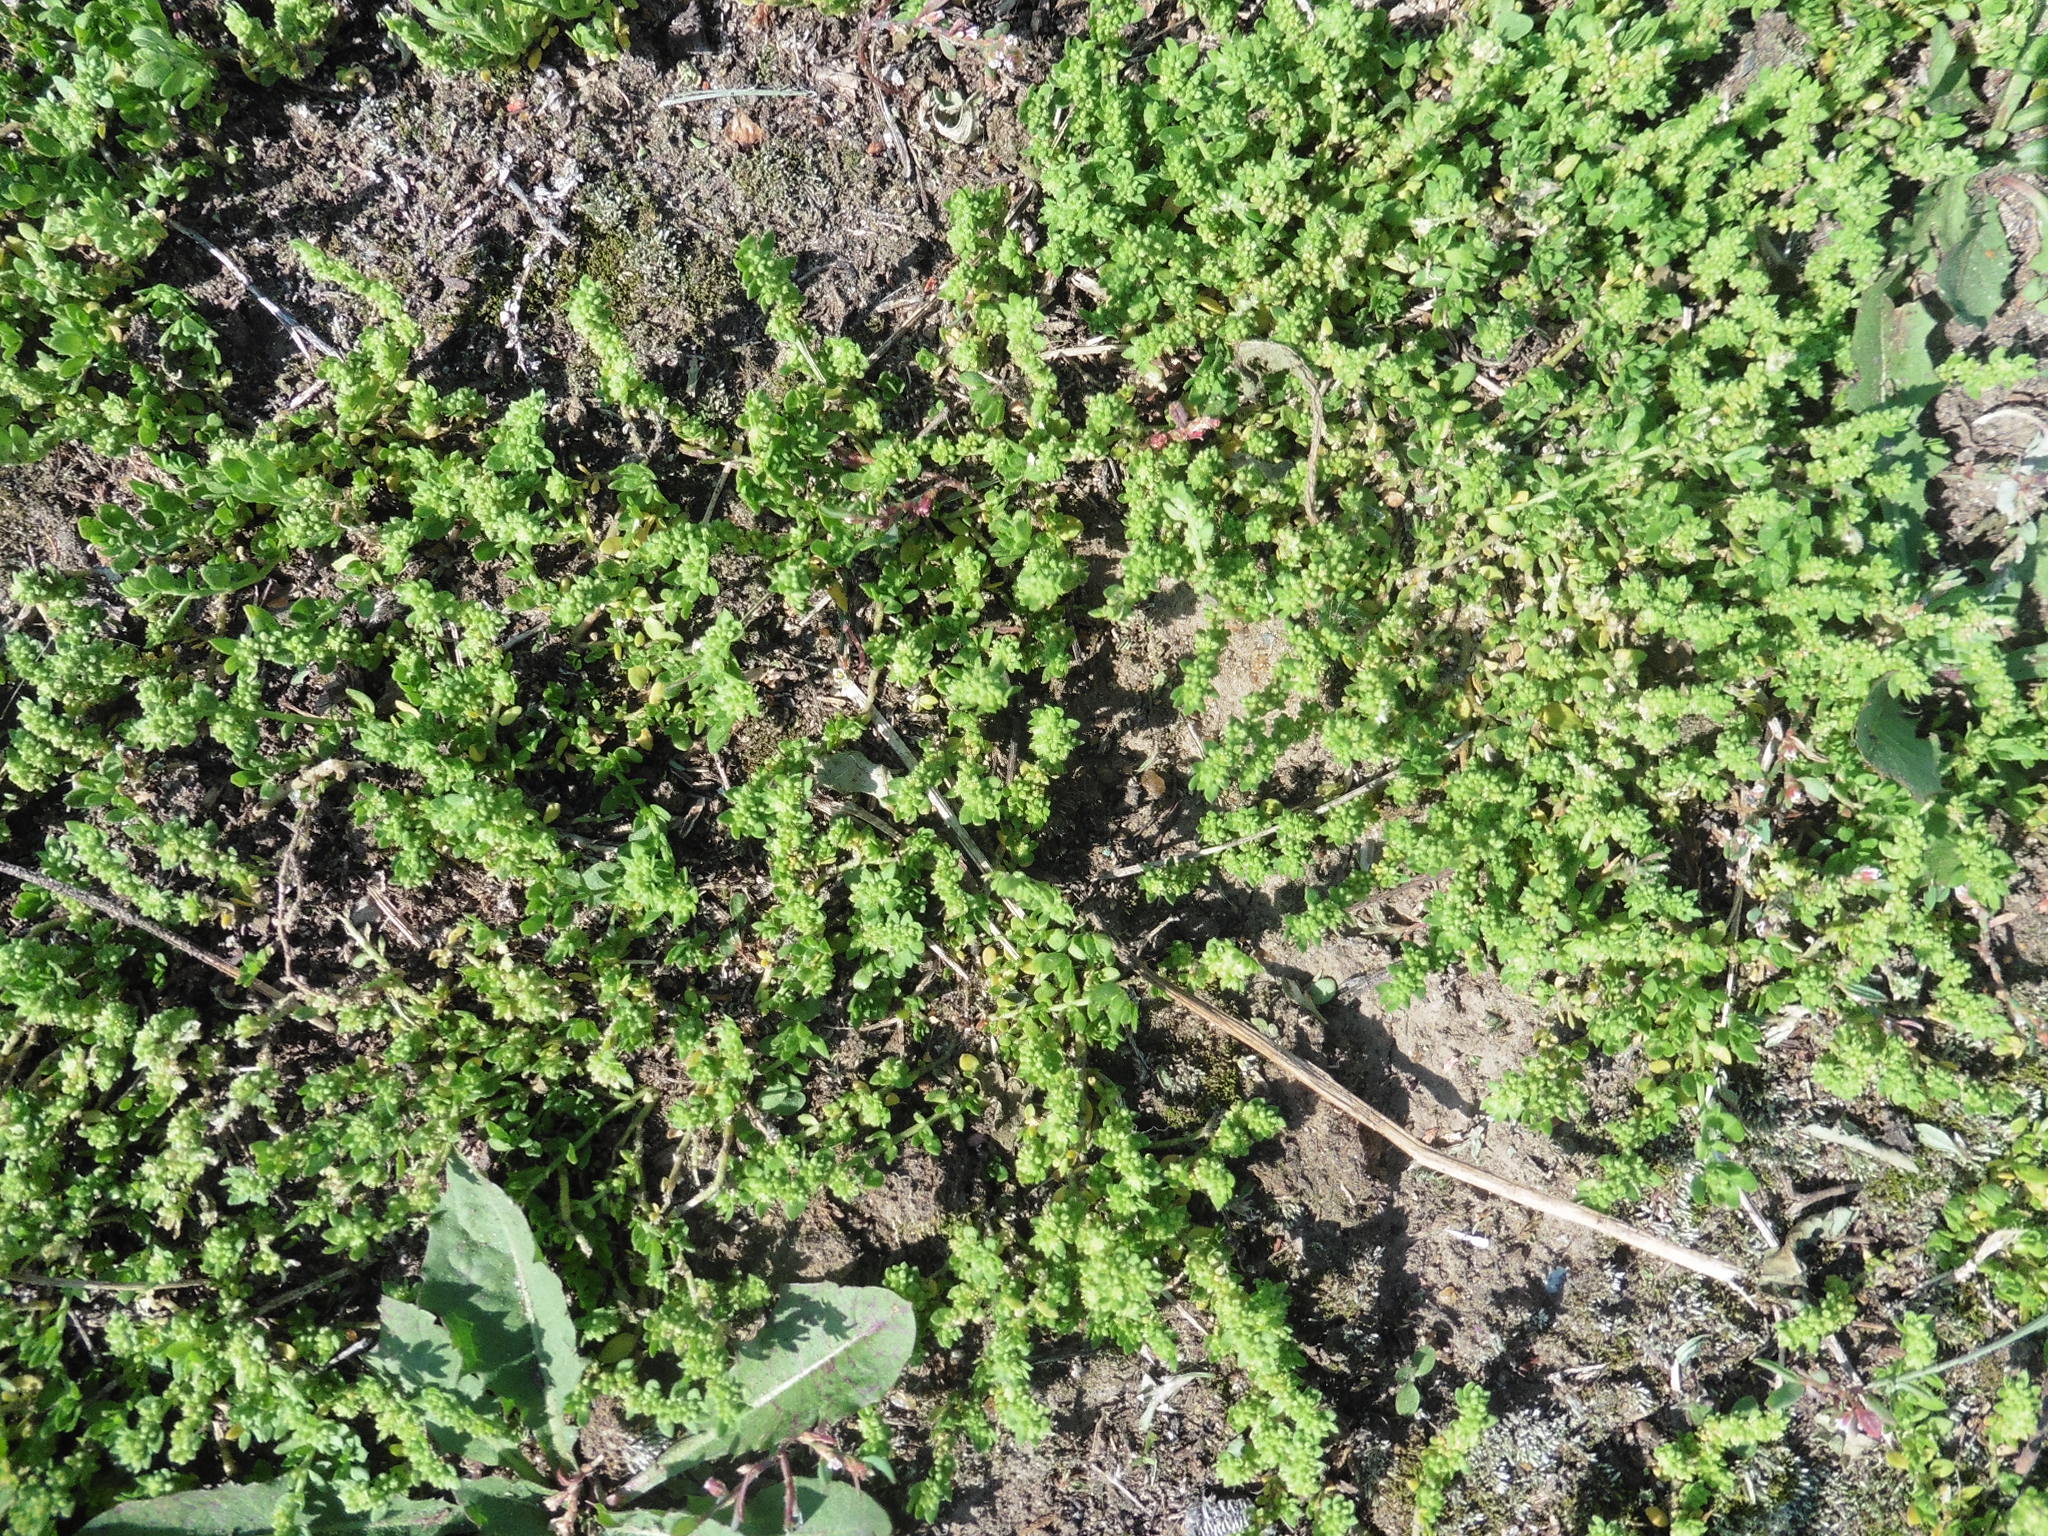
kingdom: Plantae
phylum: Tracheophyta
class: Magnoliopsida
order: Caryophyllales
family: Caryophyllaceae
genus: Herniaria
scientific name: Herniaria glabra
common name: Smooth rupturewort
